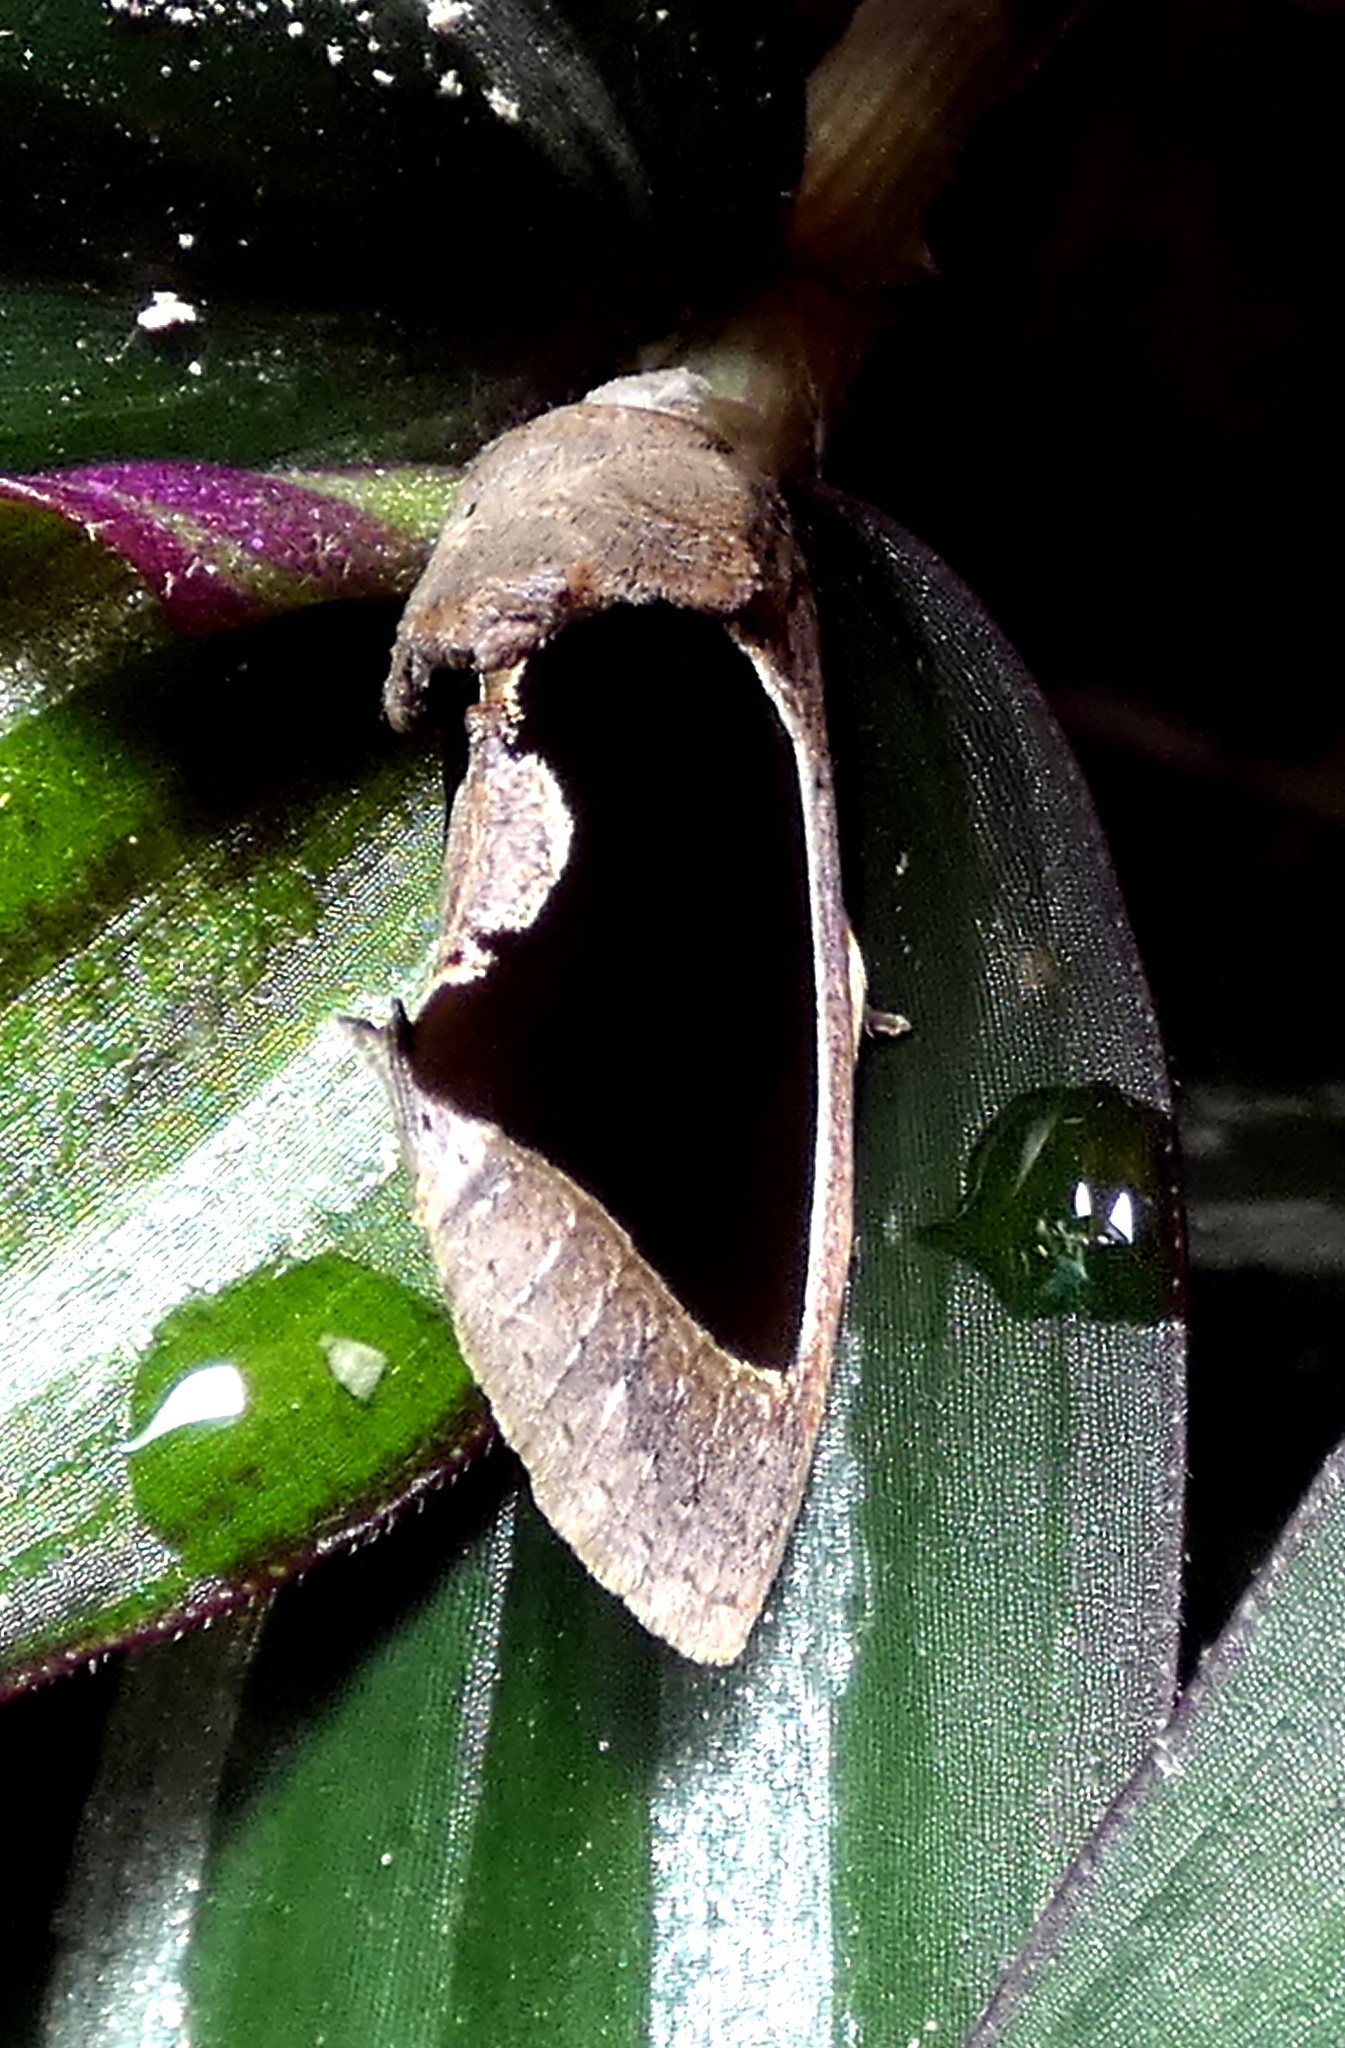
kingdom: Animalia
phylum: Arthropoda
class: Insecta
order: Lepidoptera
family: Erebidae
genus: Gonodonta
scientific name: Gonodonta sinaldus
